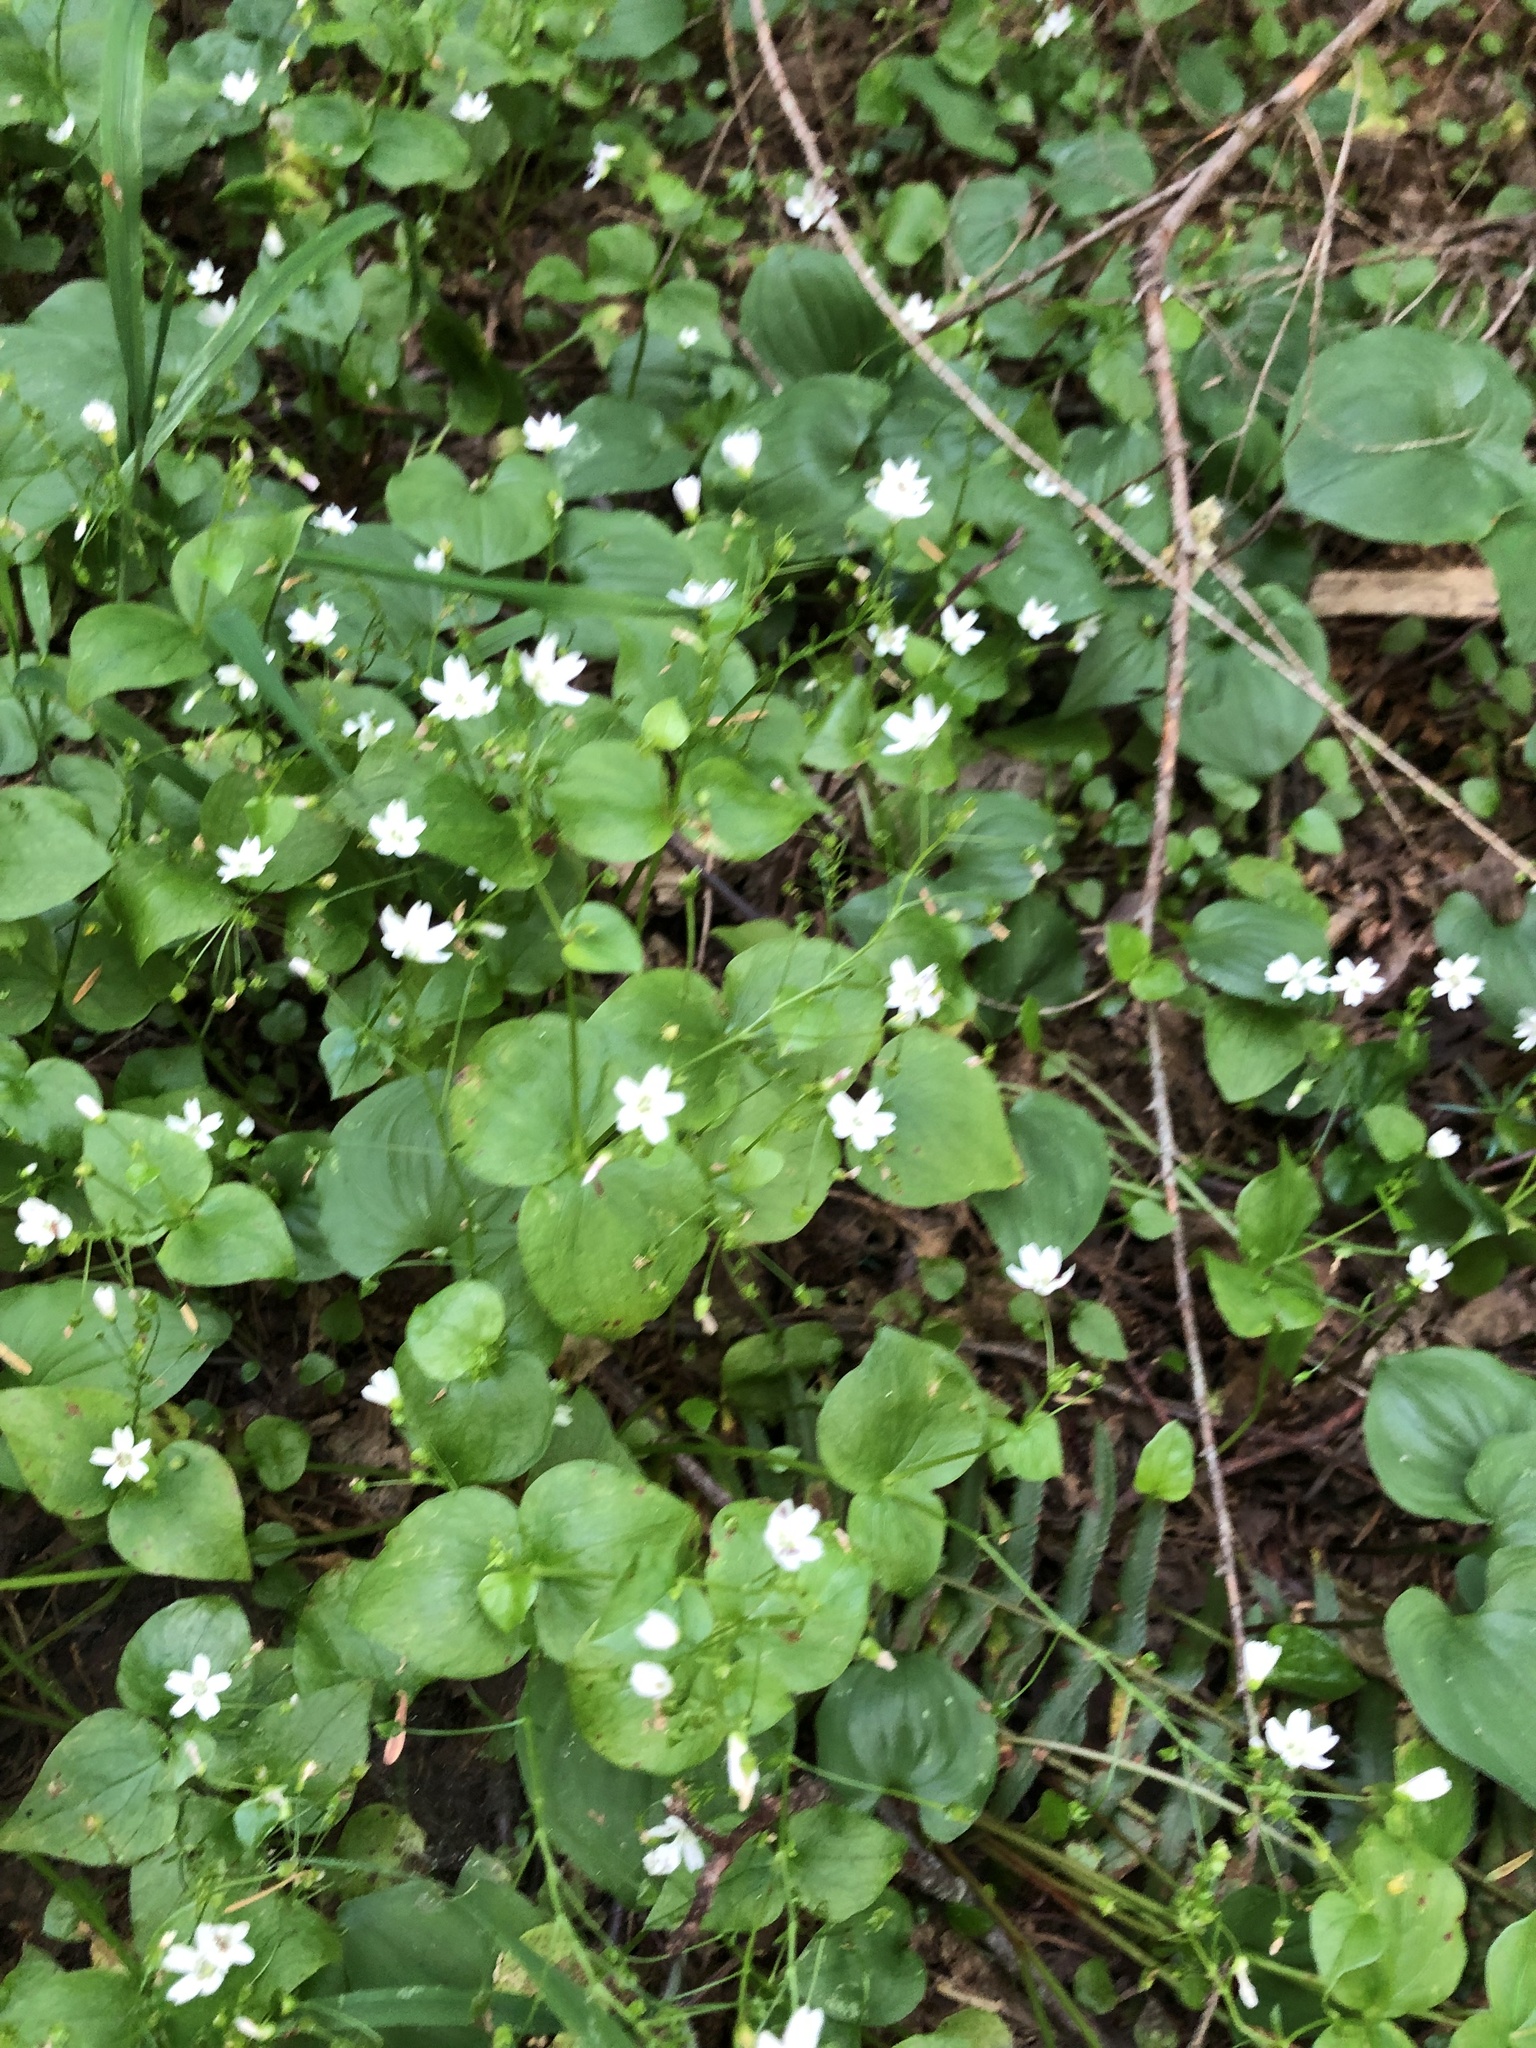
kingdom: Plantae
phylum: Tracheophyta
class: Magnoliopsida
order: Caryophyllales
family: Montiaceae
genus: Claytonia
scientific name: Claytonia sibirica
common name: Pink purslane
